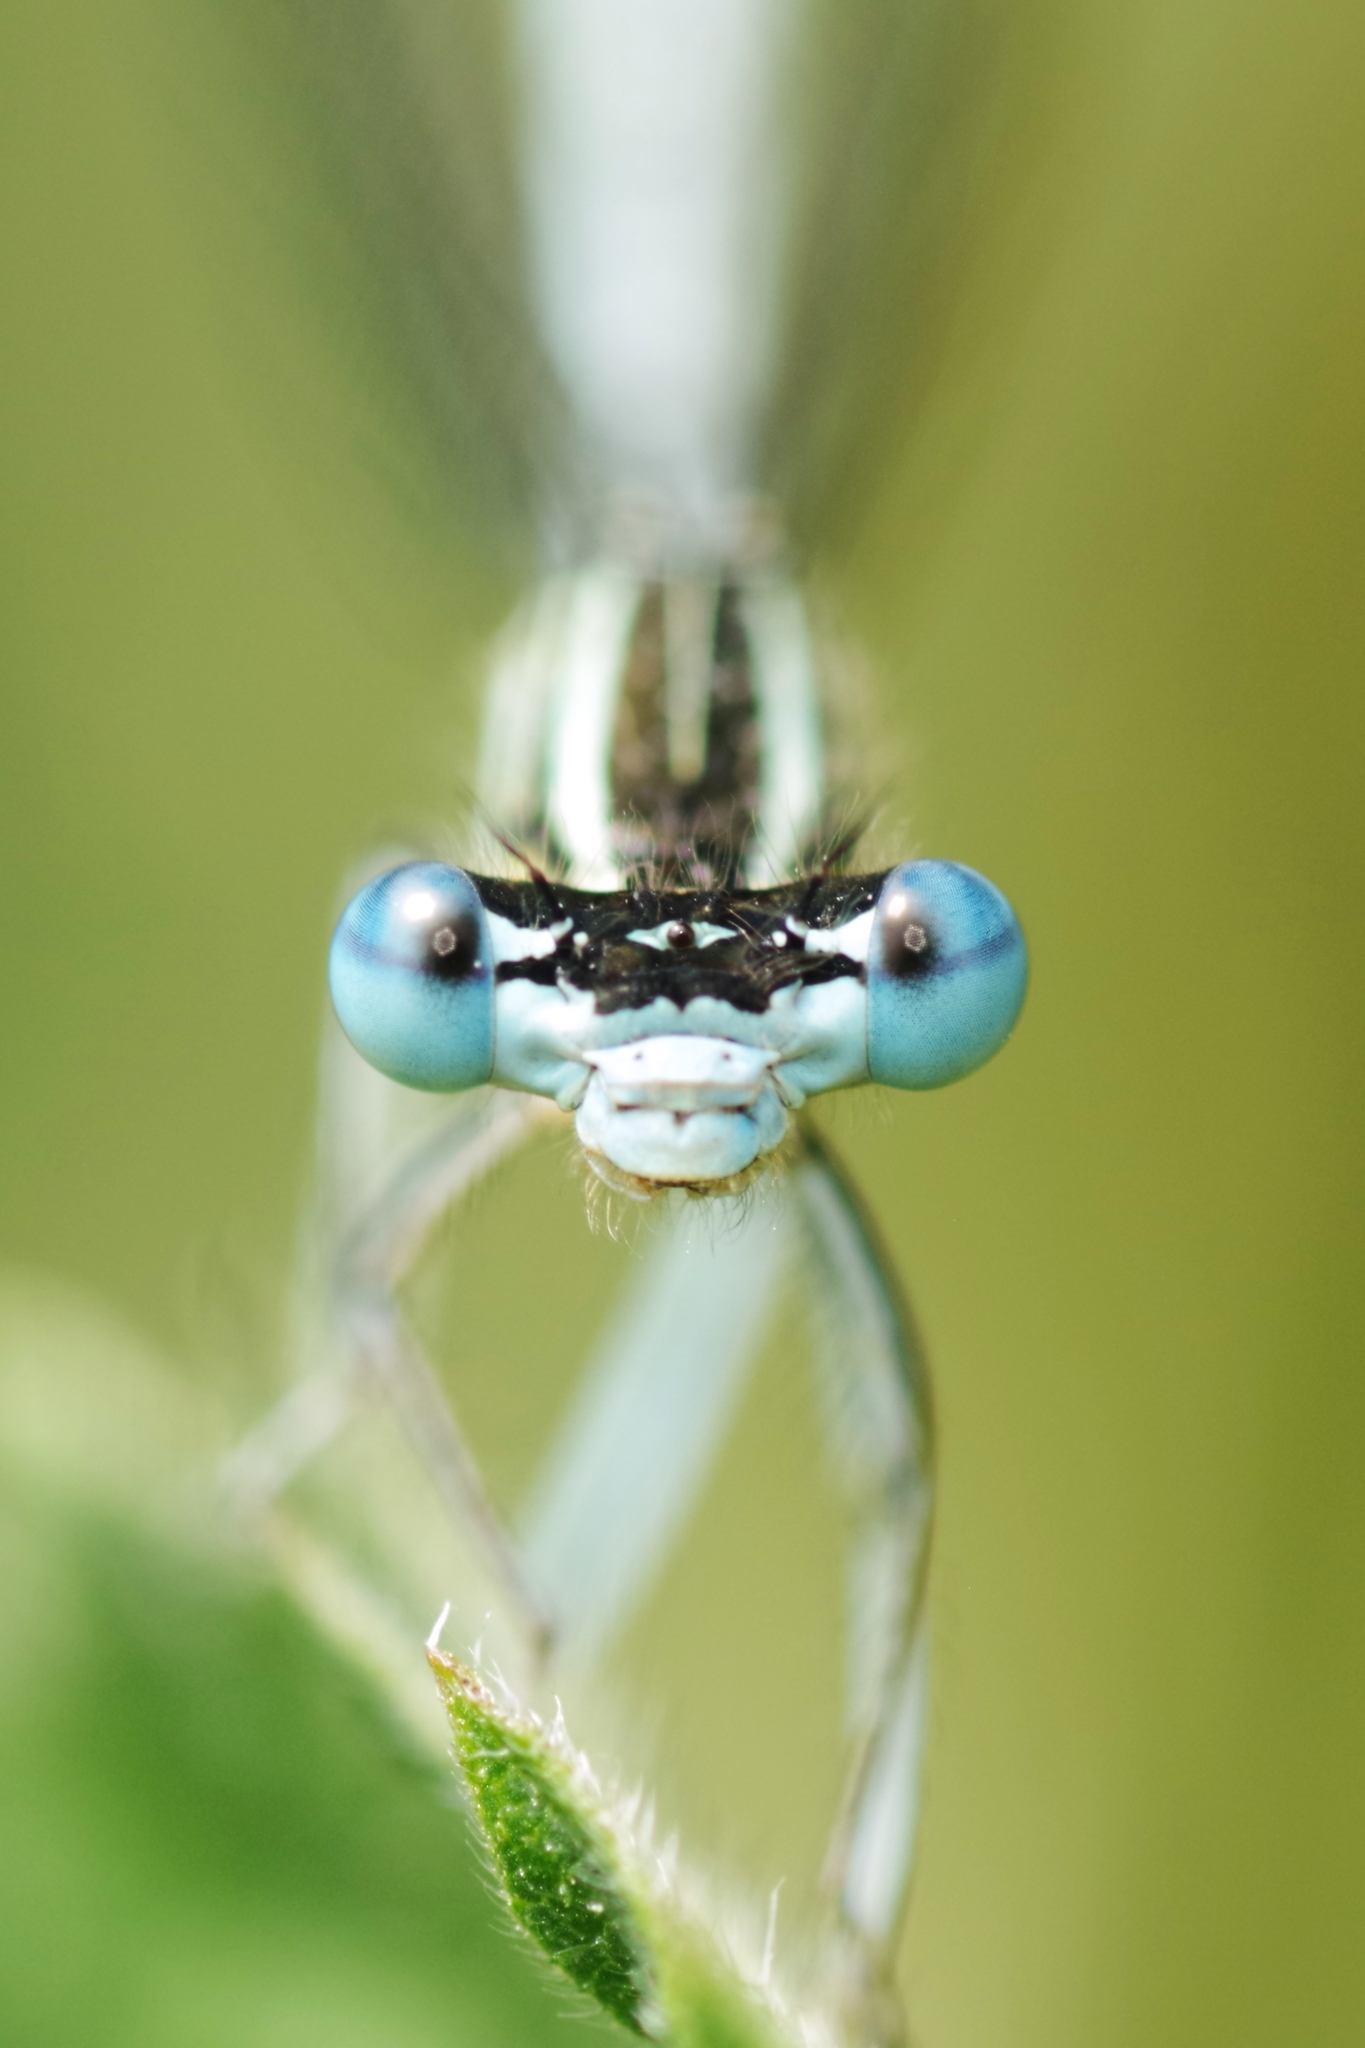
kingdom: Animalia
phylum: Arthropoda
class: Insecta
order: Odonata
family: Platycnemididae
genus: Platycnemis
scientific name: Platycnemis pennipes
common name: White-legged damselfly
